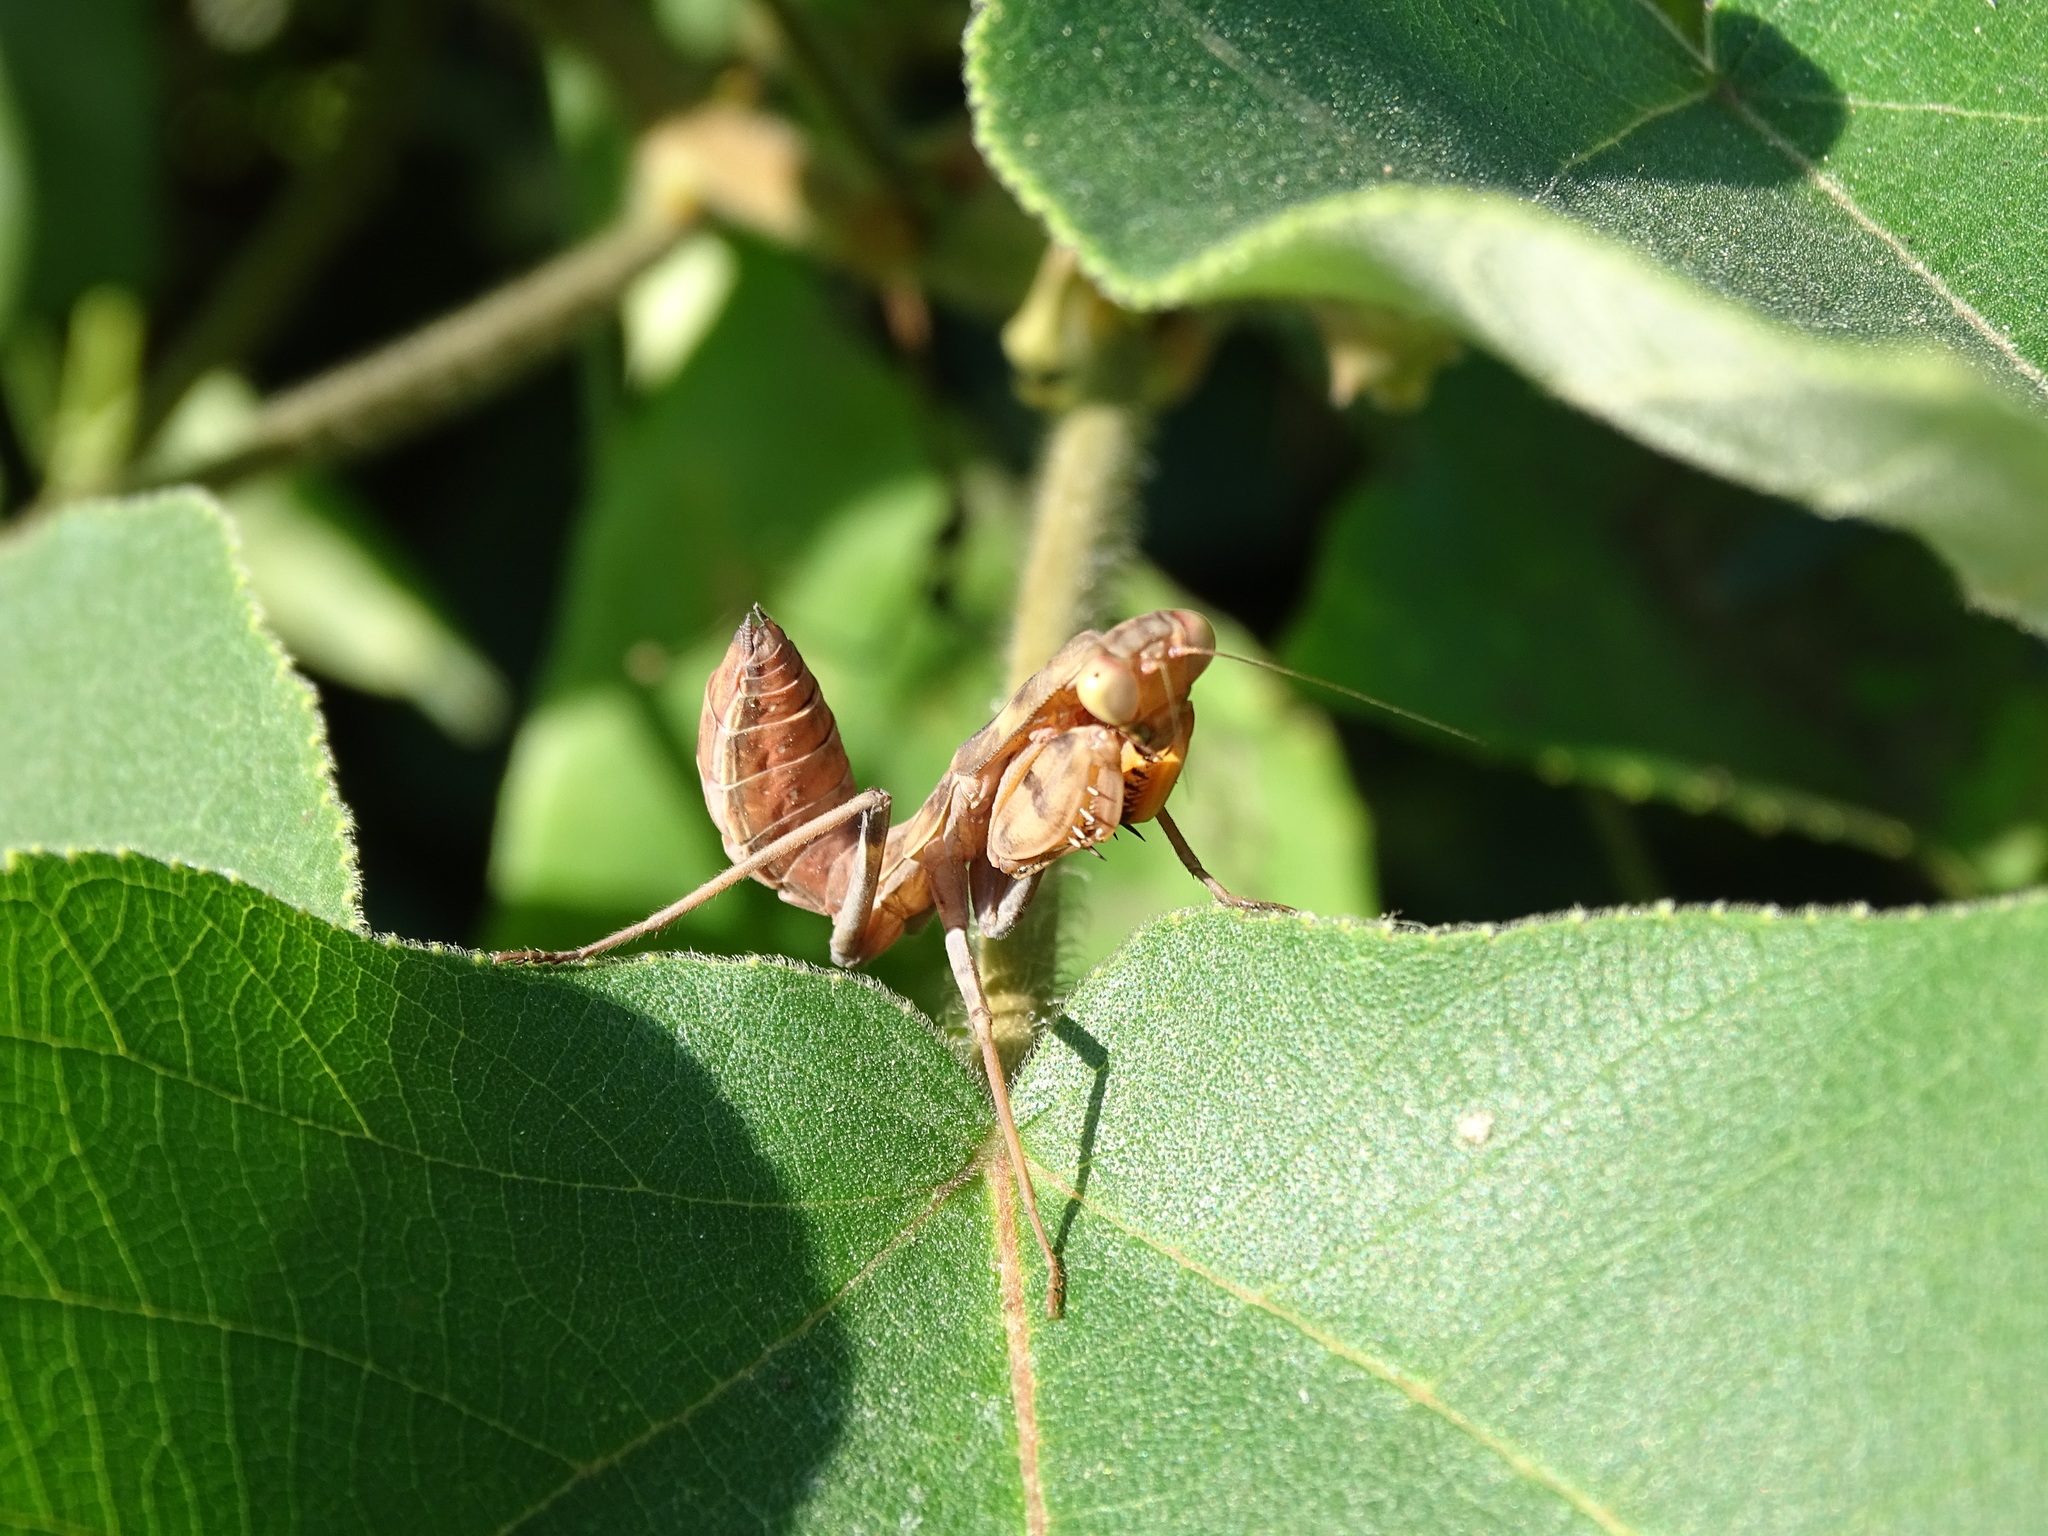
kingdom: Animalia
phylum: Arthropoda
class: Insecta
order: Mantodea
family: Mantidae
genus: Hierodula
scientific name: Hierodula patellifera
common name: Asian mantis
